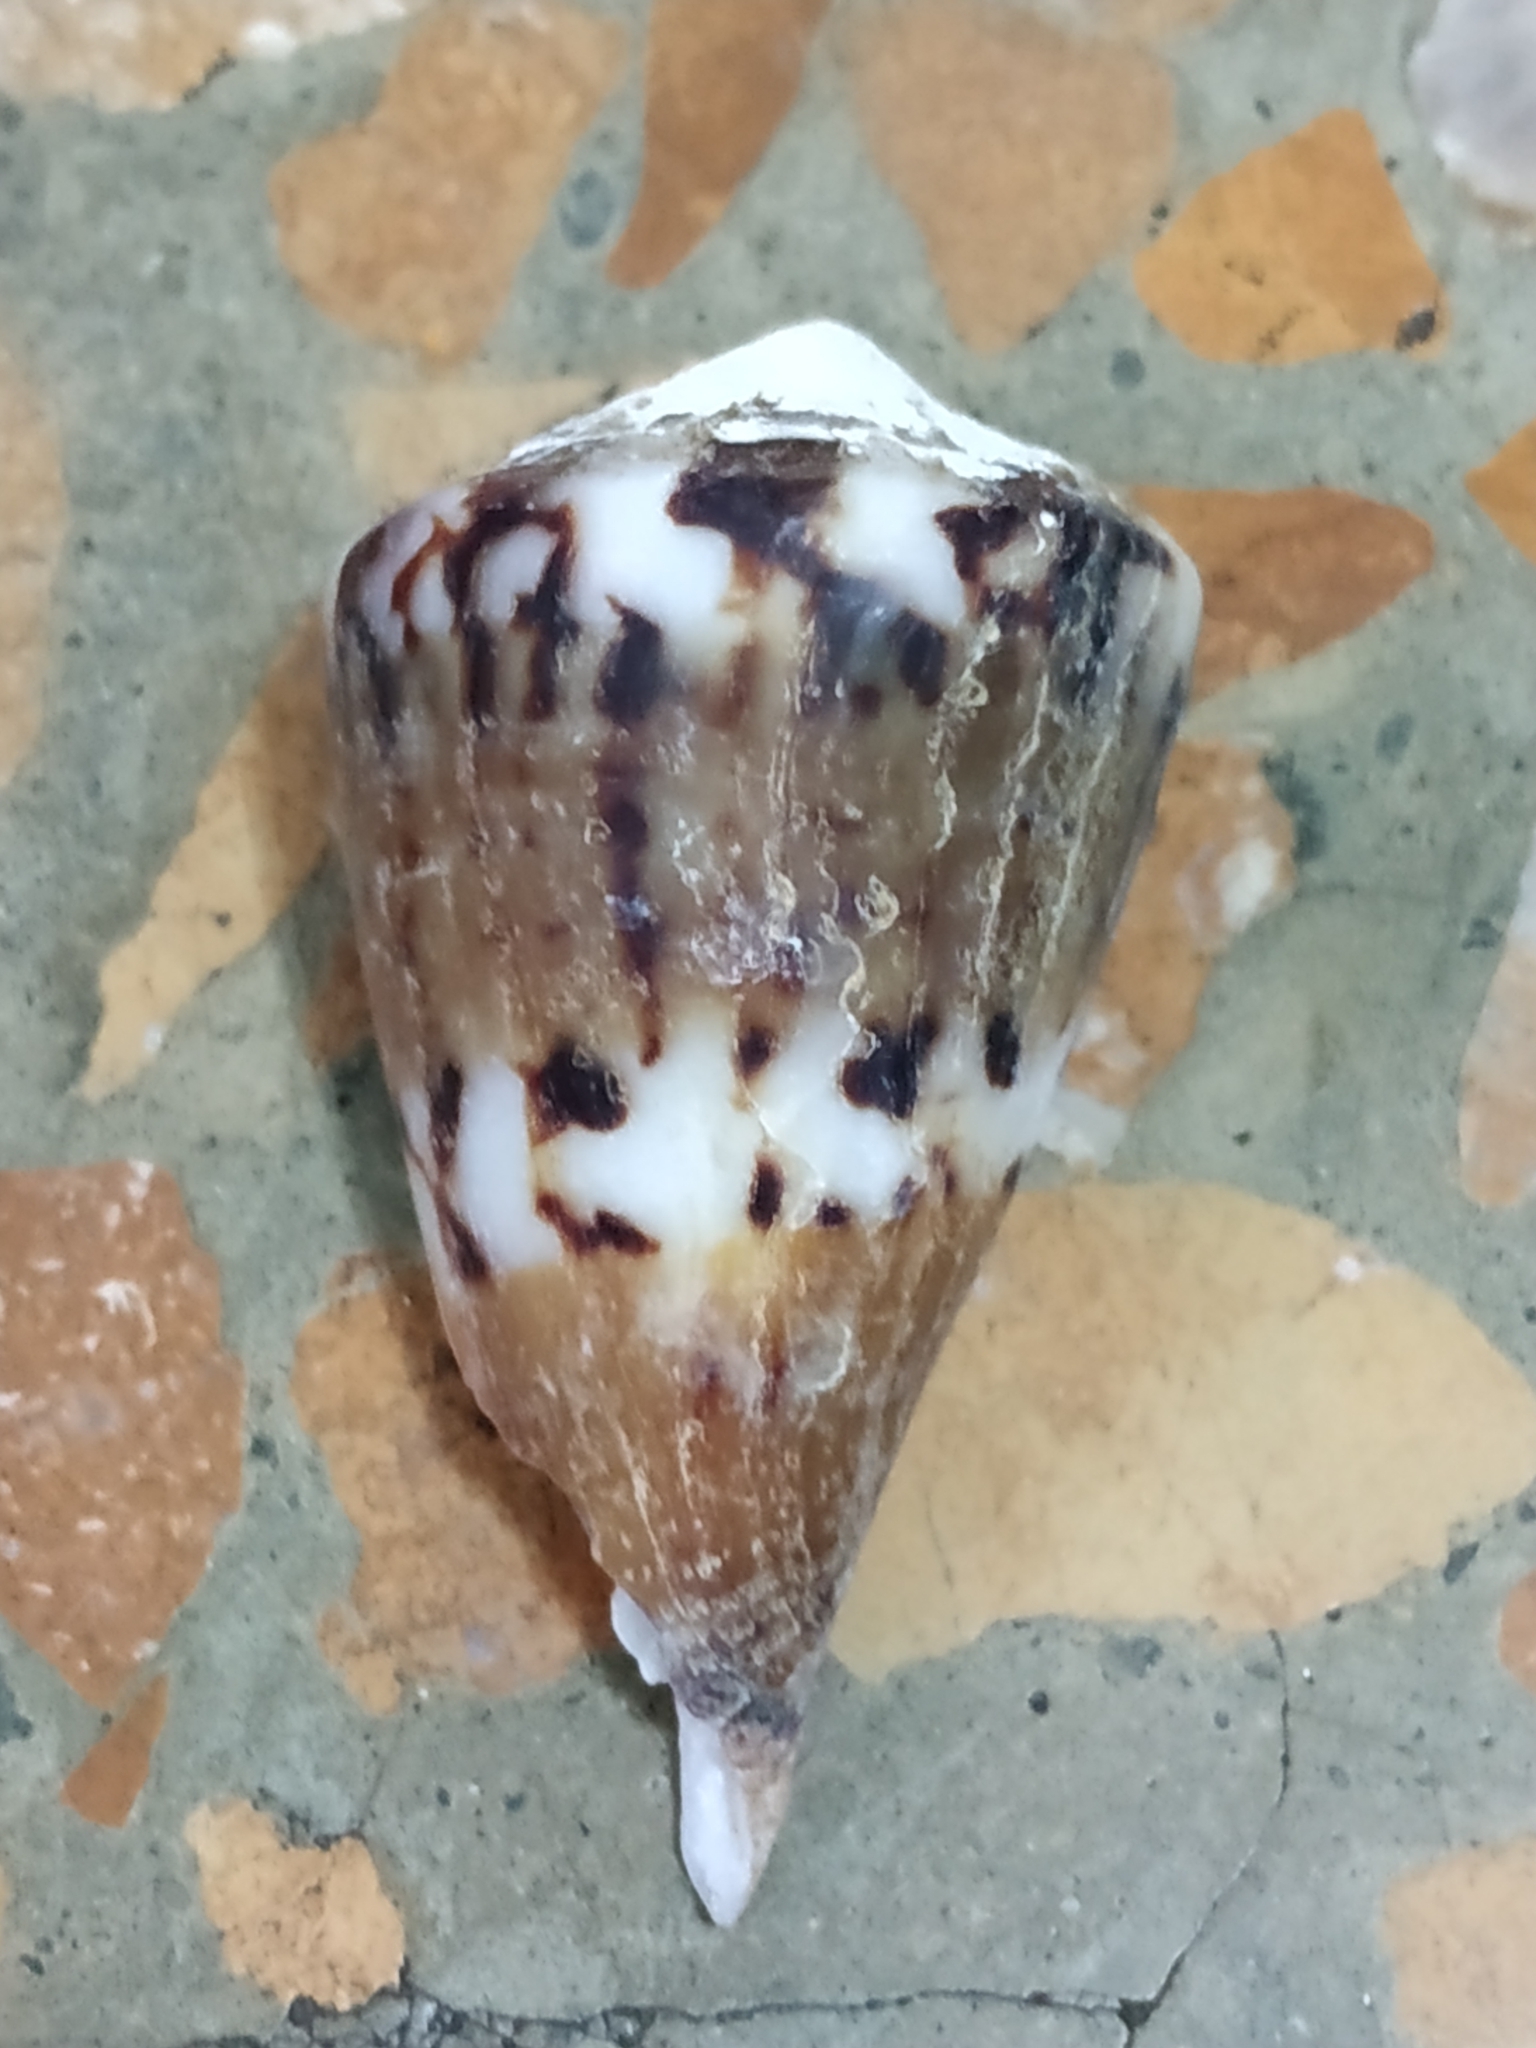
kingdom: Animalia
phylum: Mollusca
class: Gastropoda
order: Neogastropoda
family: Conidae
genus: Conus
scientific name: Conus capitaneus
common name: Captain cone
